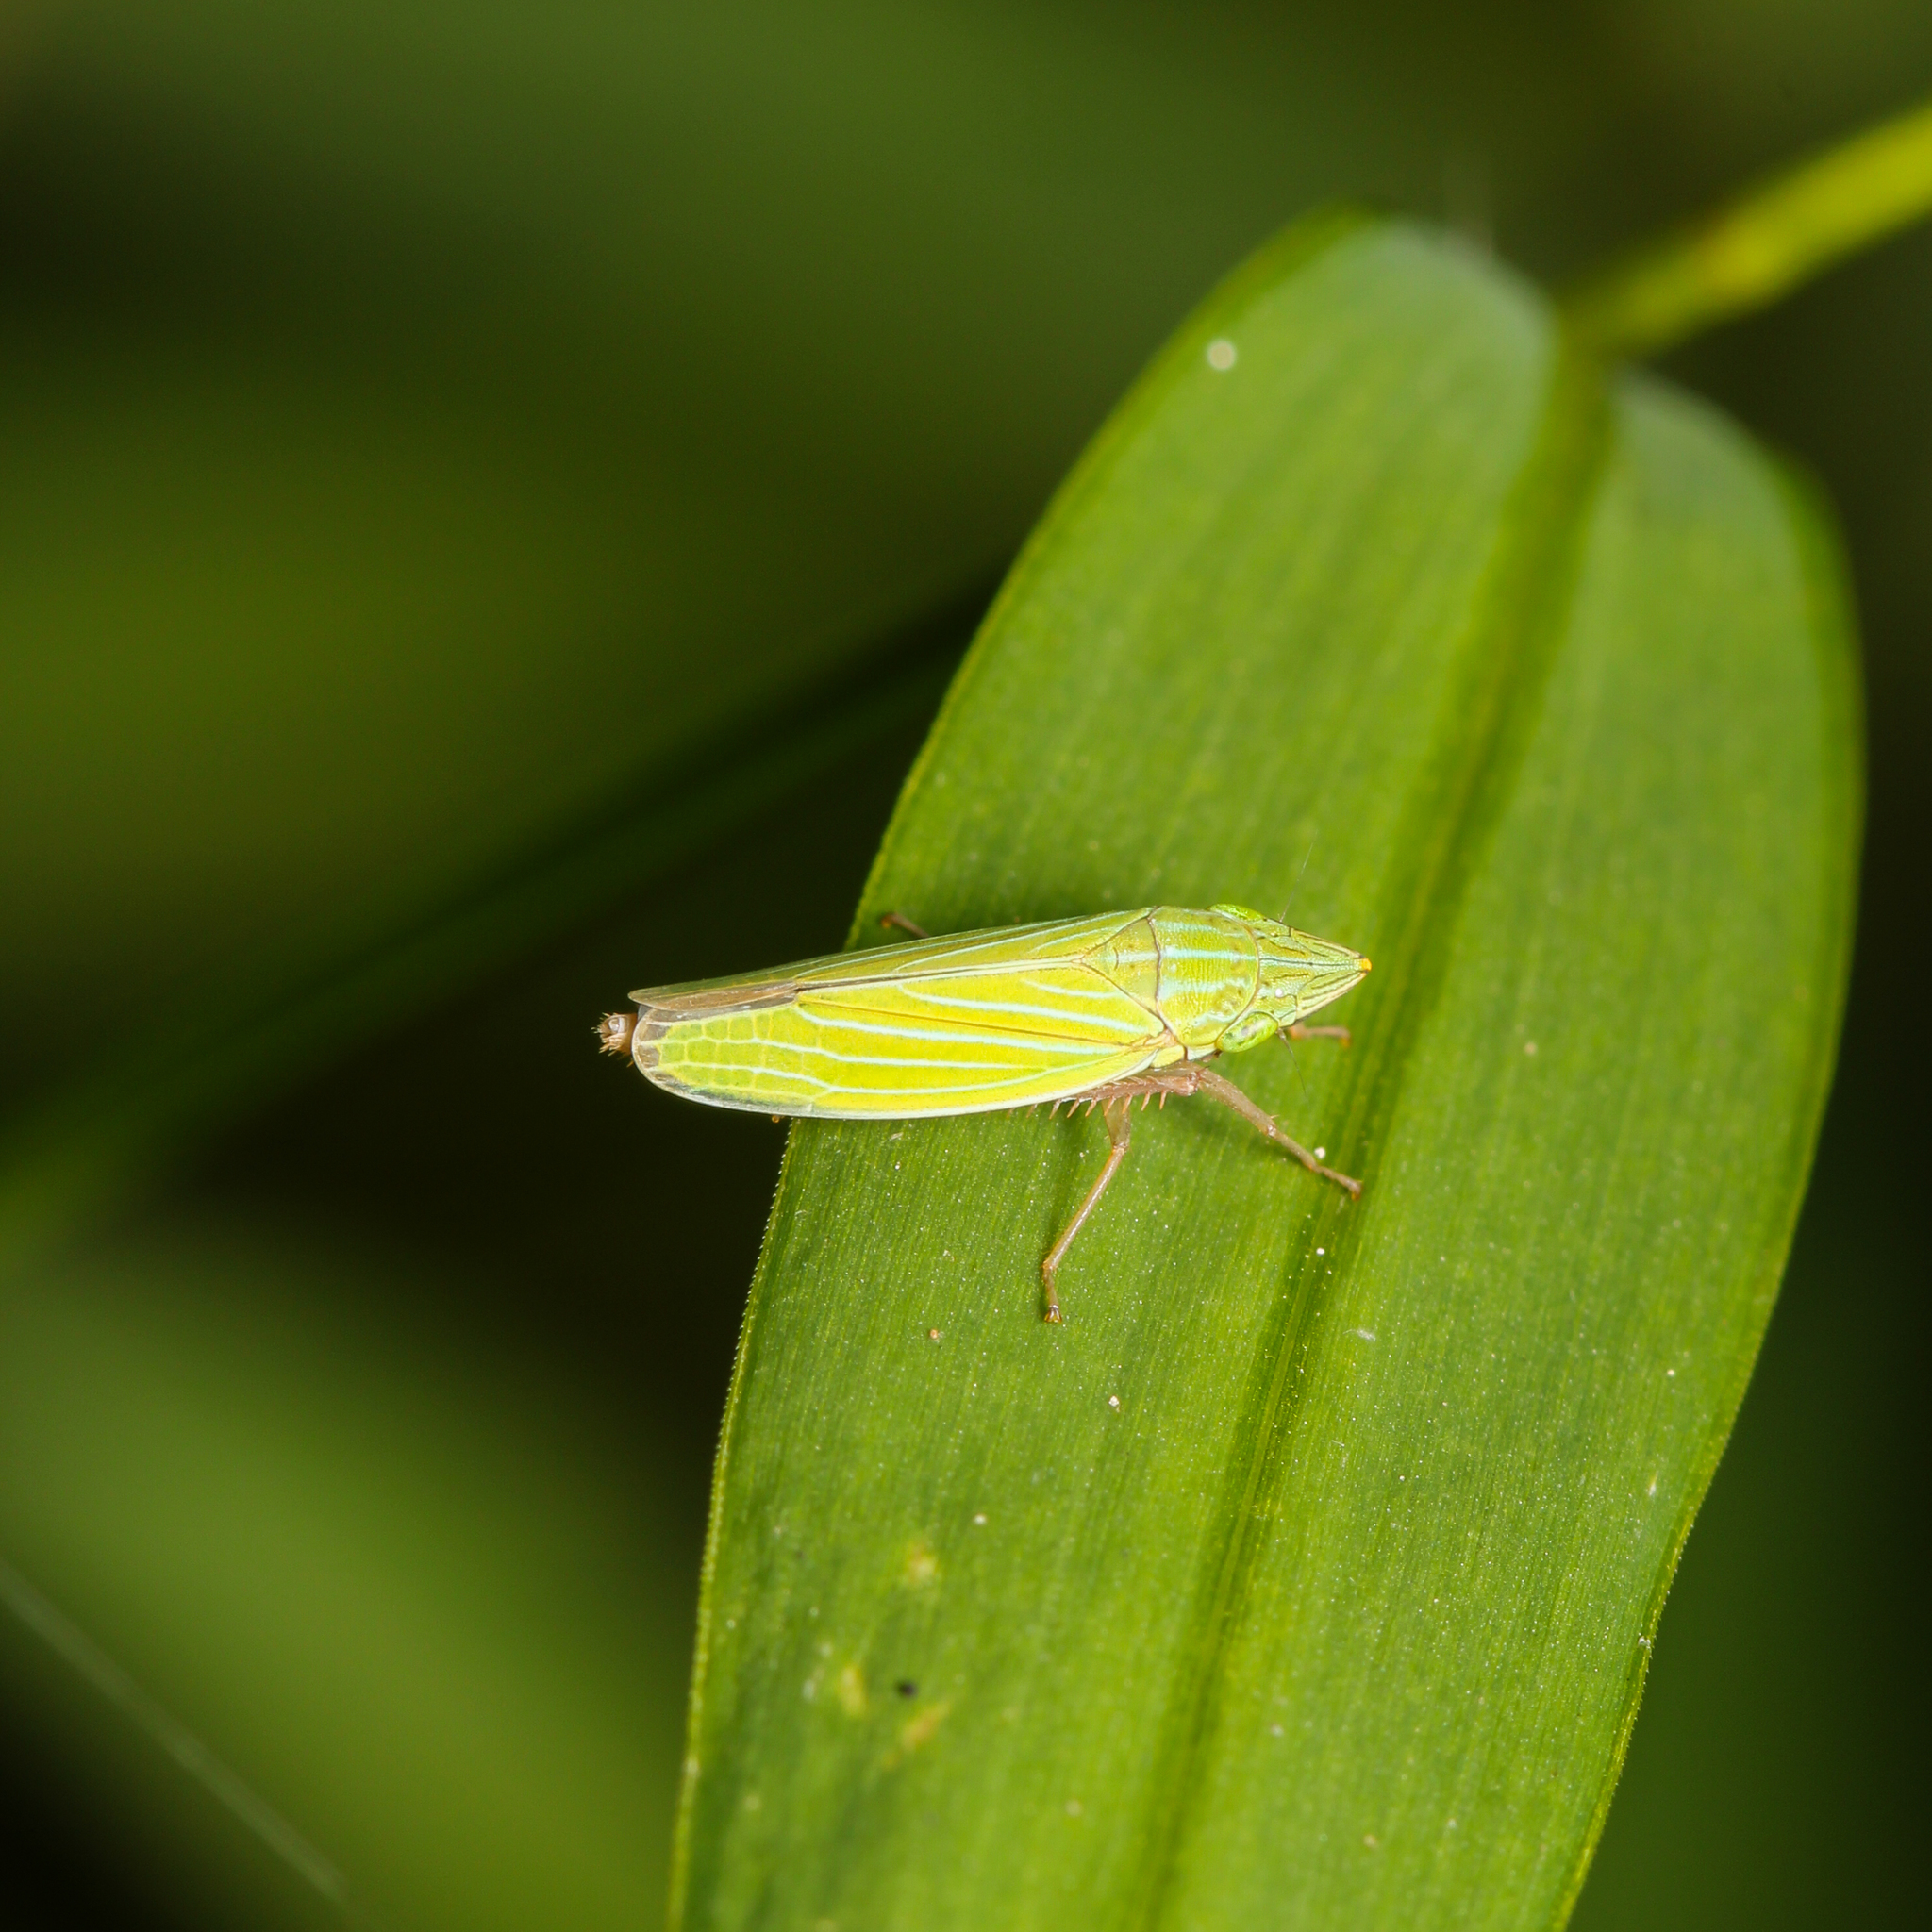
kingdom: Animalia
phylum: Arthropoda
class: Insecta
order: Hemiptera
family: Cicadellidae
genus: Draeculacephala
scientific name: Draeculacephala robinsoni
